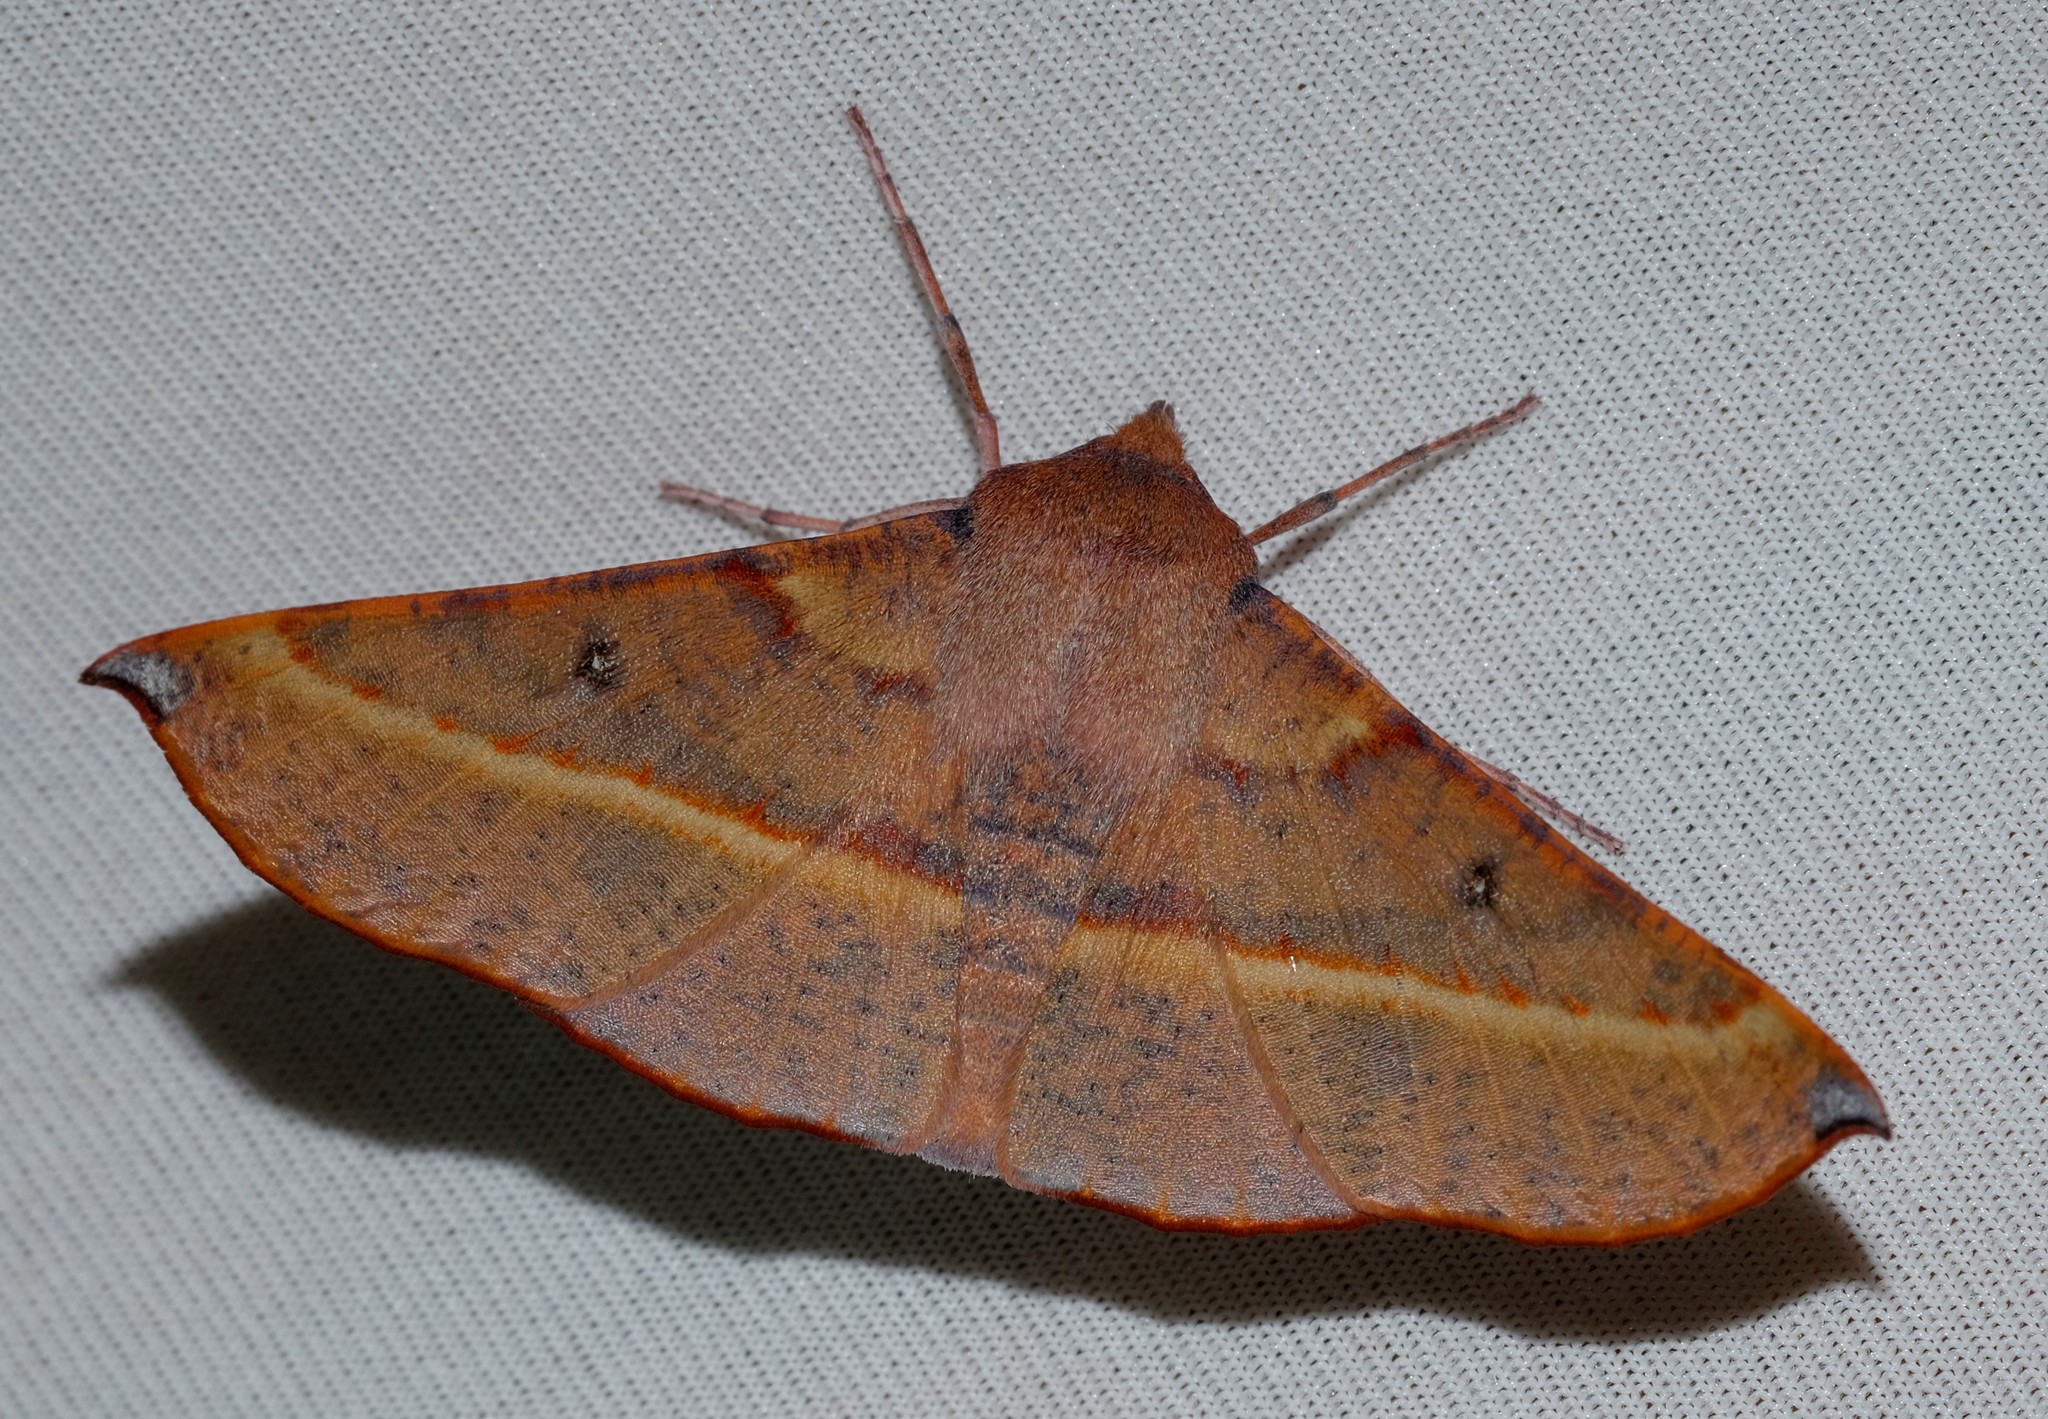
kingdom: Animalia
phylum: Arthropoda
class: Insecta
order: Lepidoptera
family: Geometridae
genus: Oenochroma
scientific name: Oenochroma vinaria
